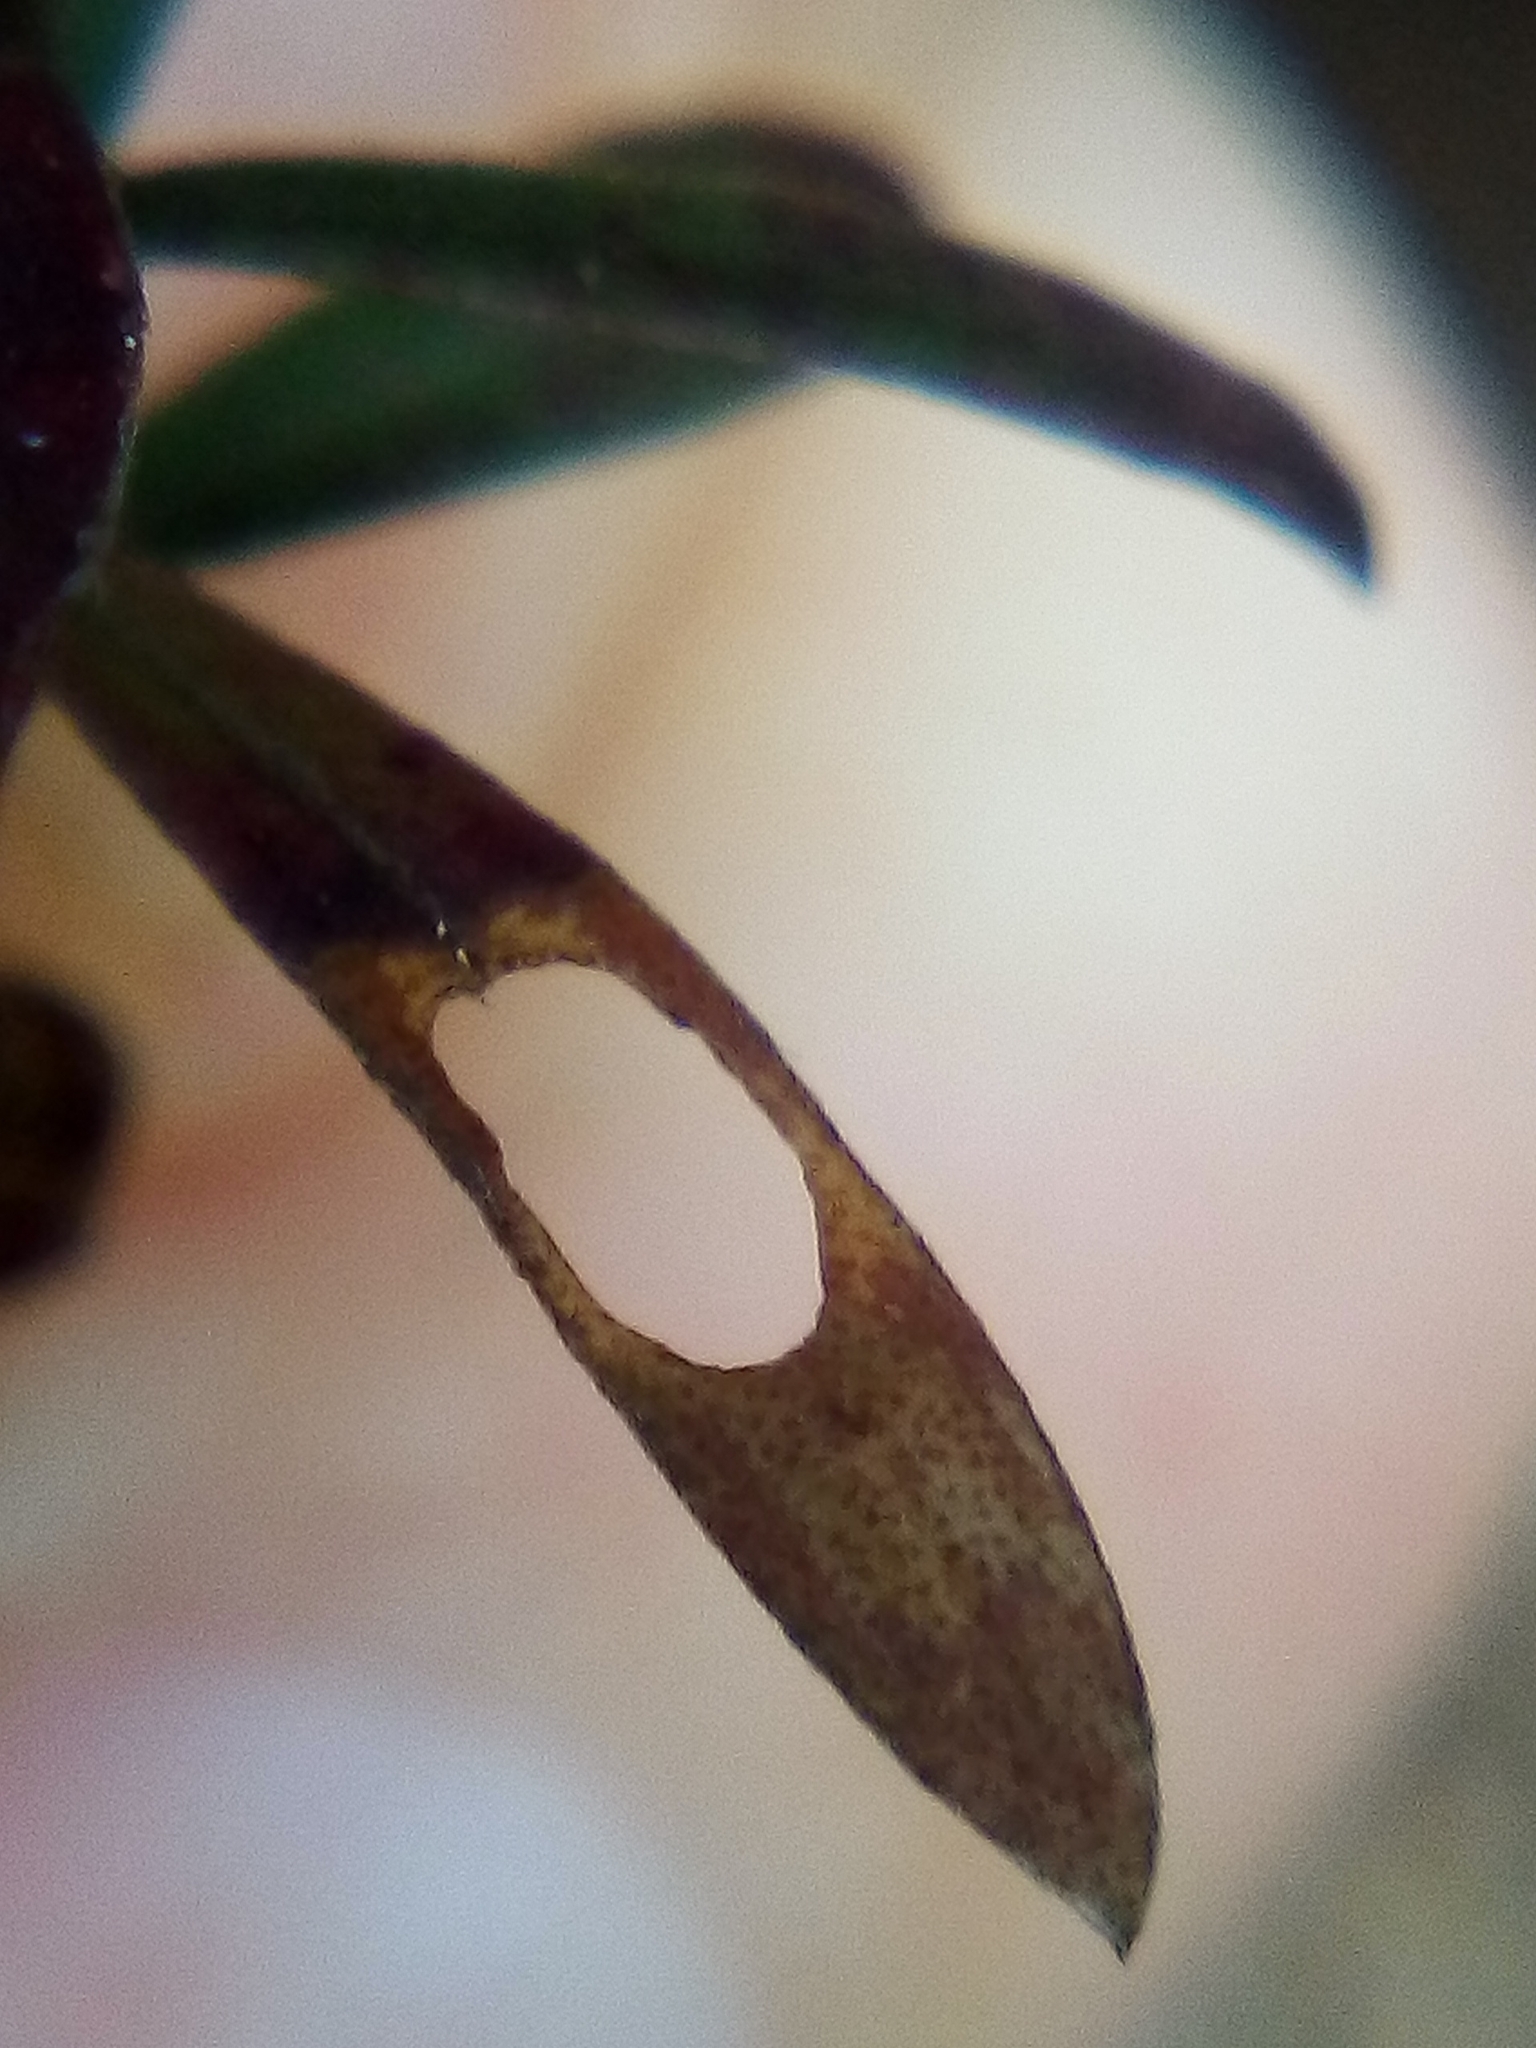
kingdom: Animalia
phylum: Arthropoda
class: Insecta
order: Lepidoptera
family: Heliozelidae
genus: Heliozela
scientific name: Heliozela catoptrias
